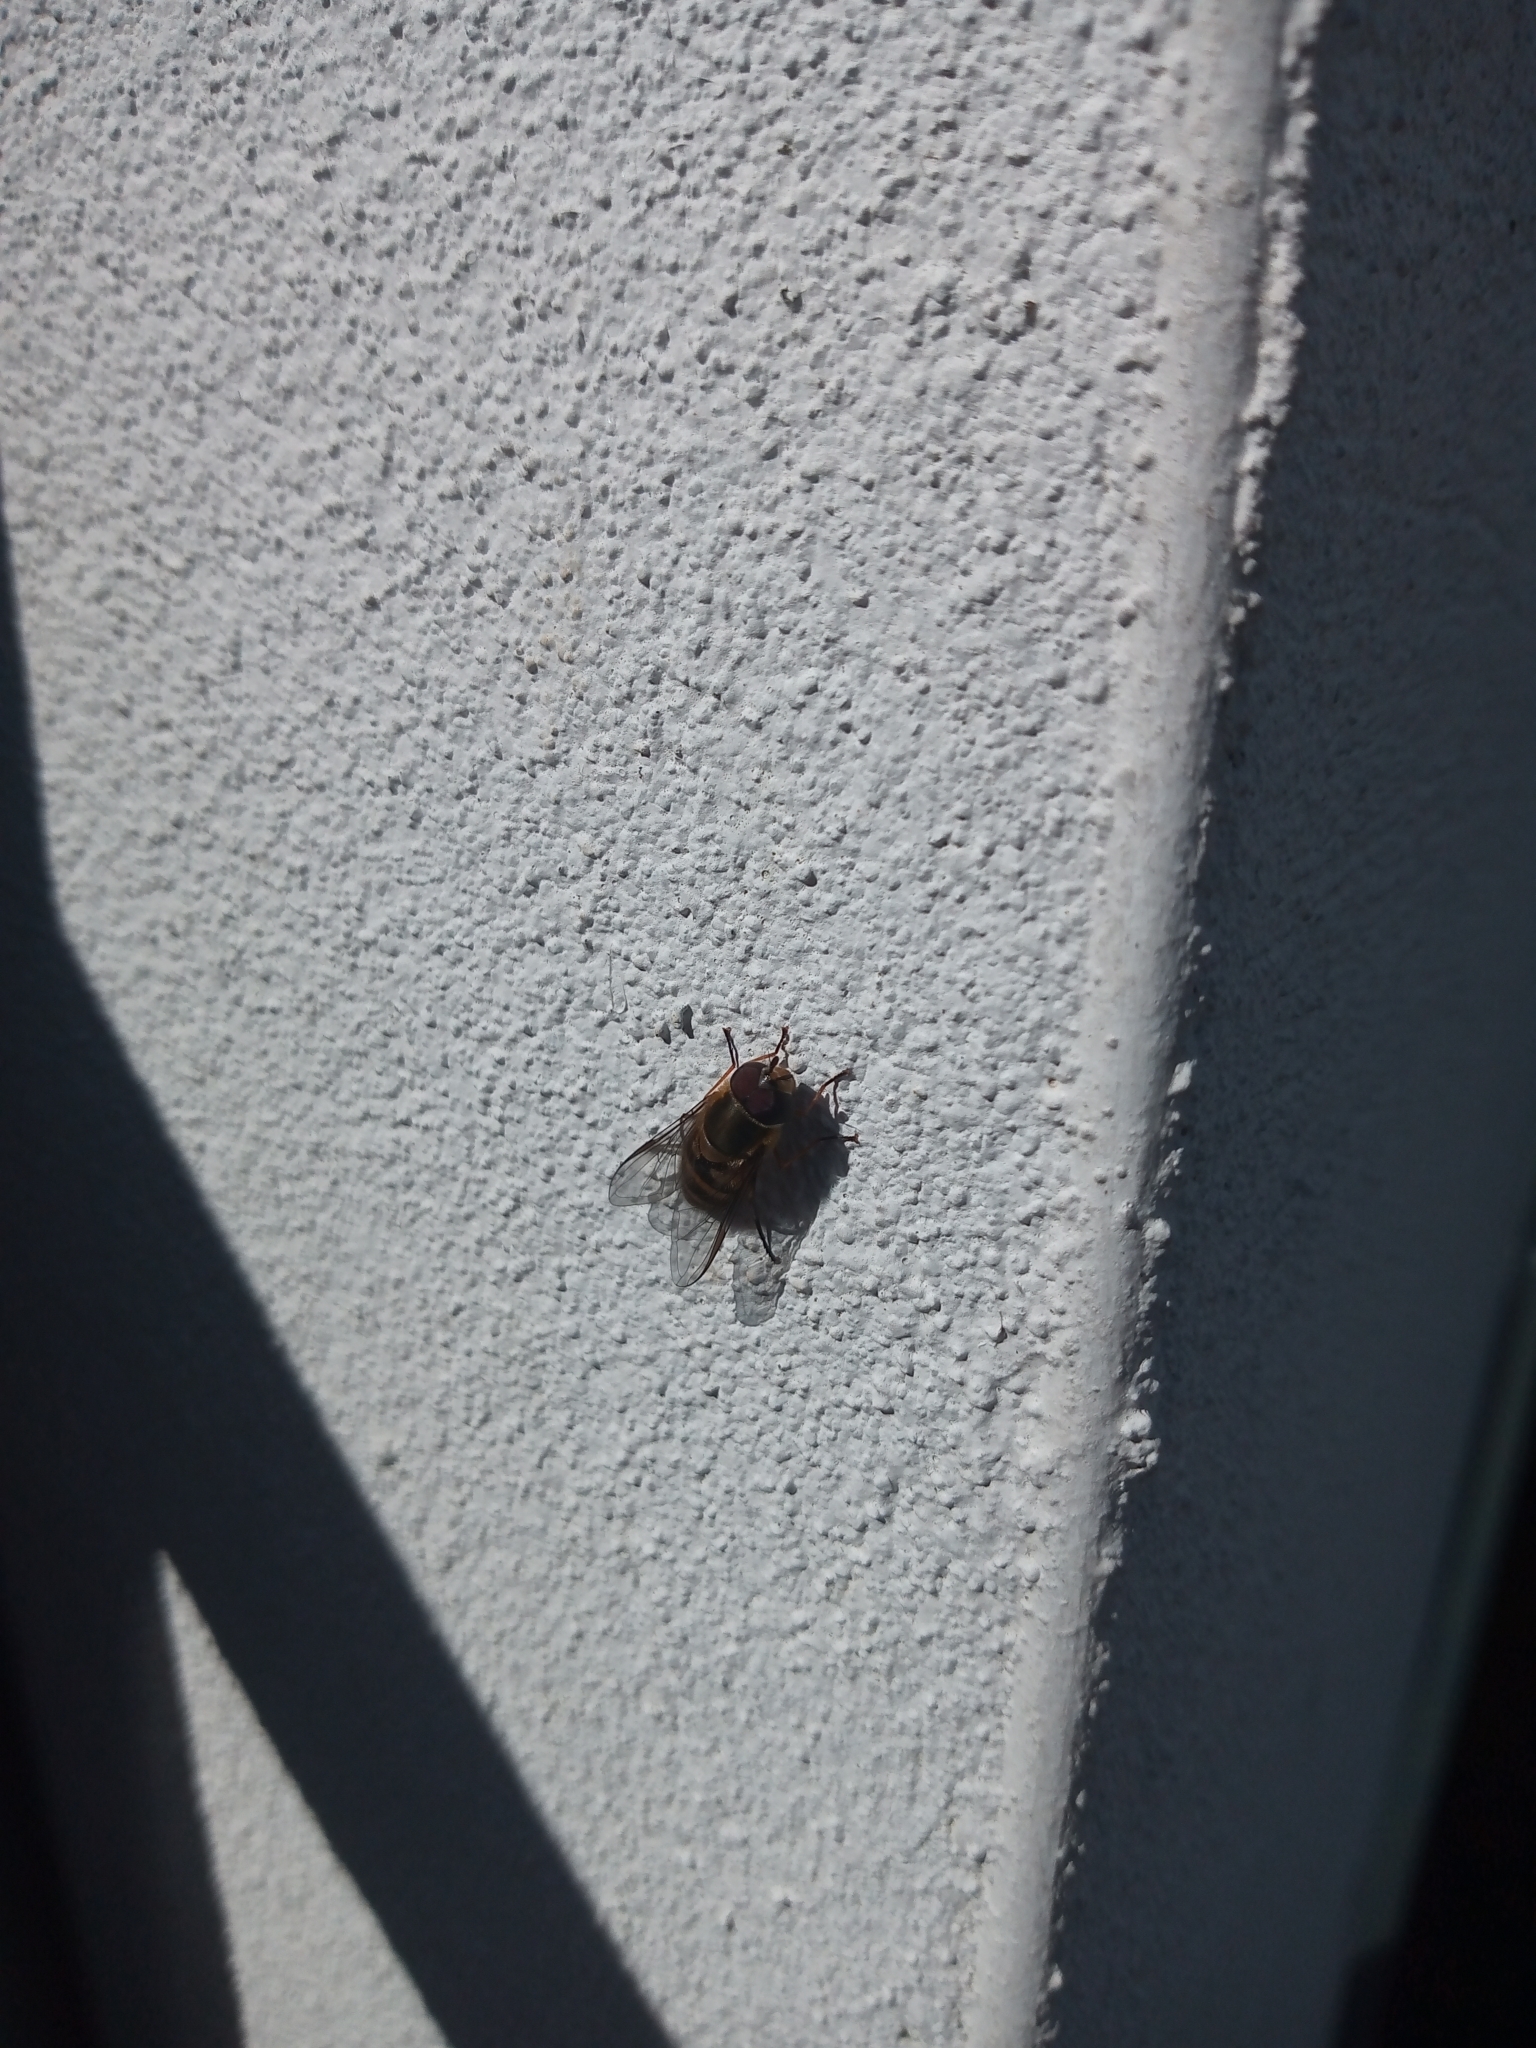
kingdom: Animalia
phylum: Arthropoda
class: Insecta
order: Diptera
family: Syrphidae
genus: Syrphus
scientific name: Syrphus
